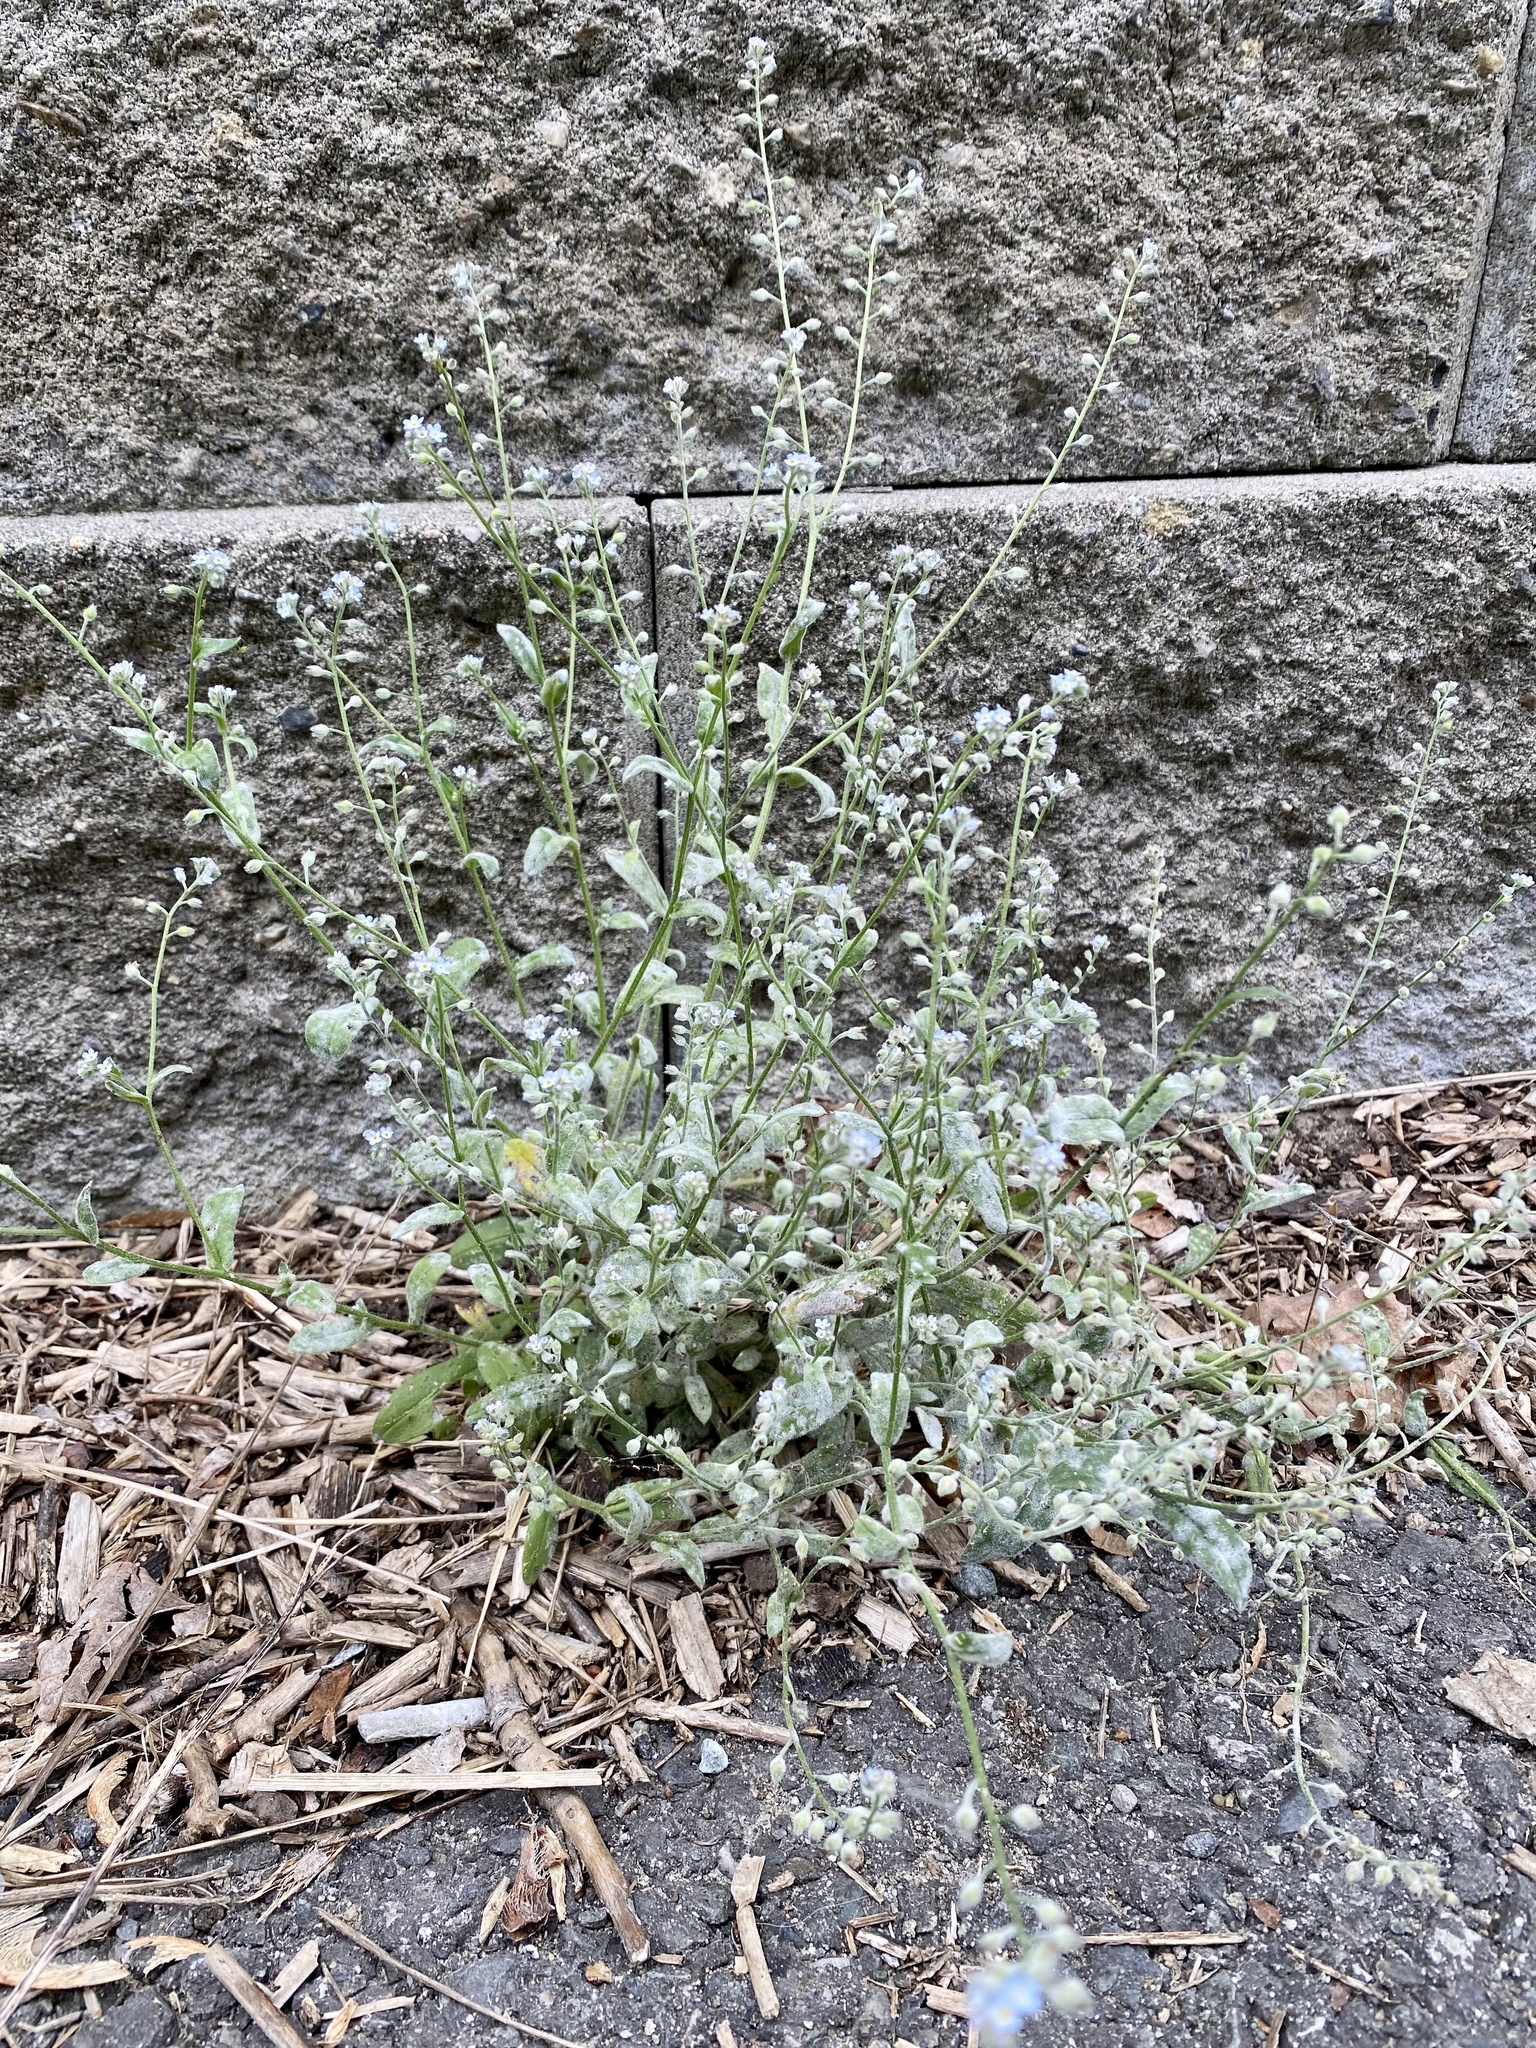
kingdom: Plantae
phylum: Tracheophyta
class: Magnoliopsida
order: Boraginales
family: Boraginaceae
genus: Myosotis
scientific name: Myosotis arvensis
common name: Field forget-me-not
